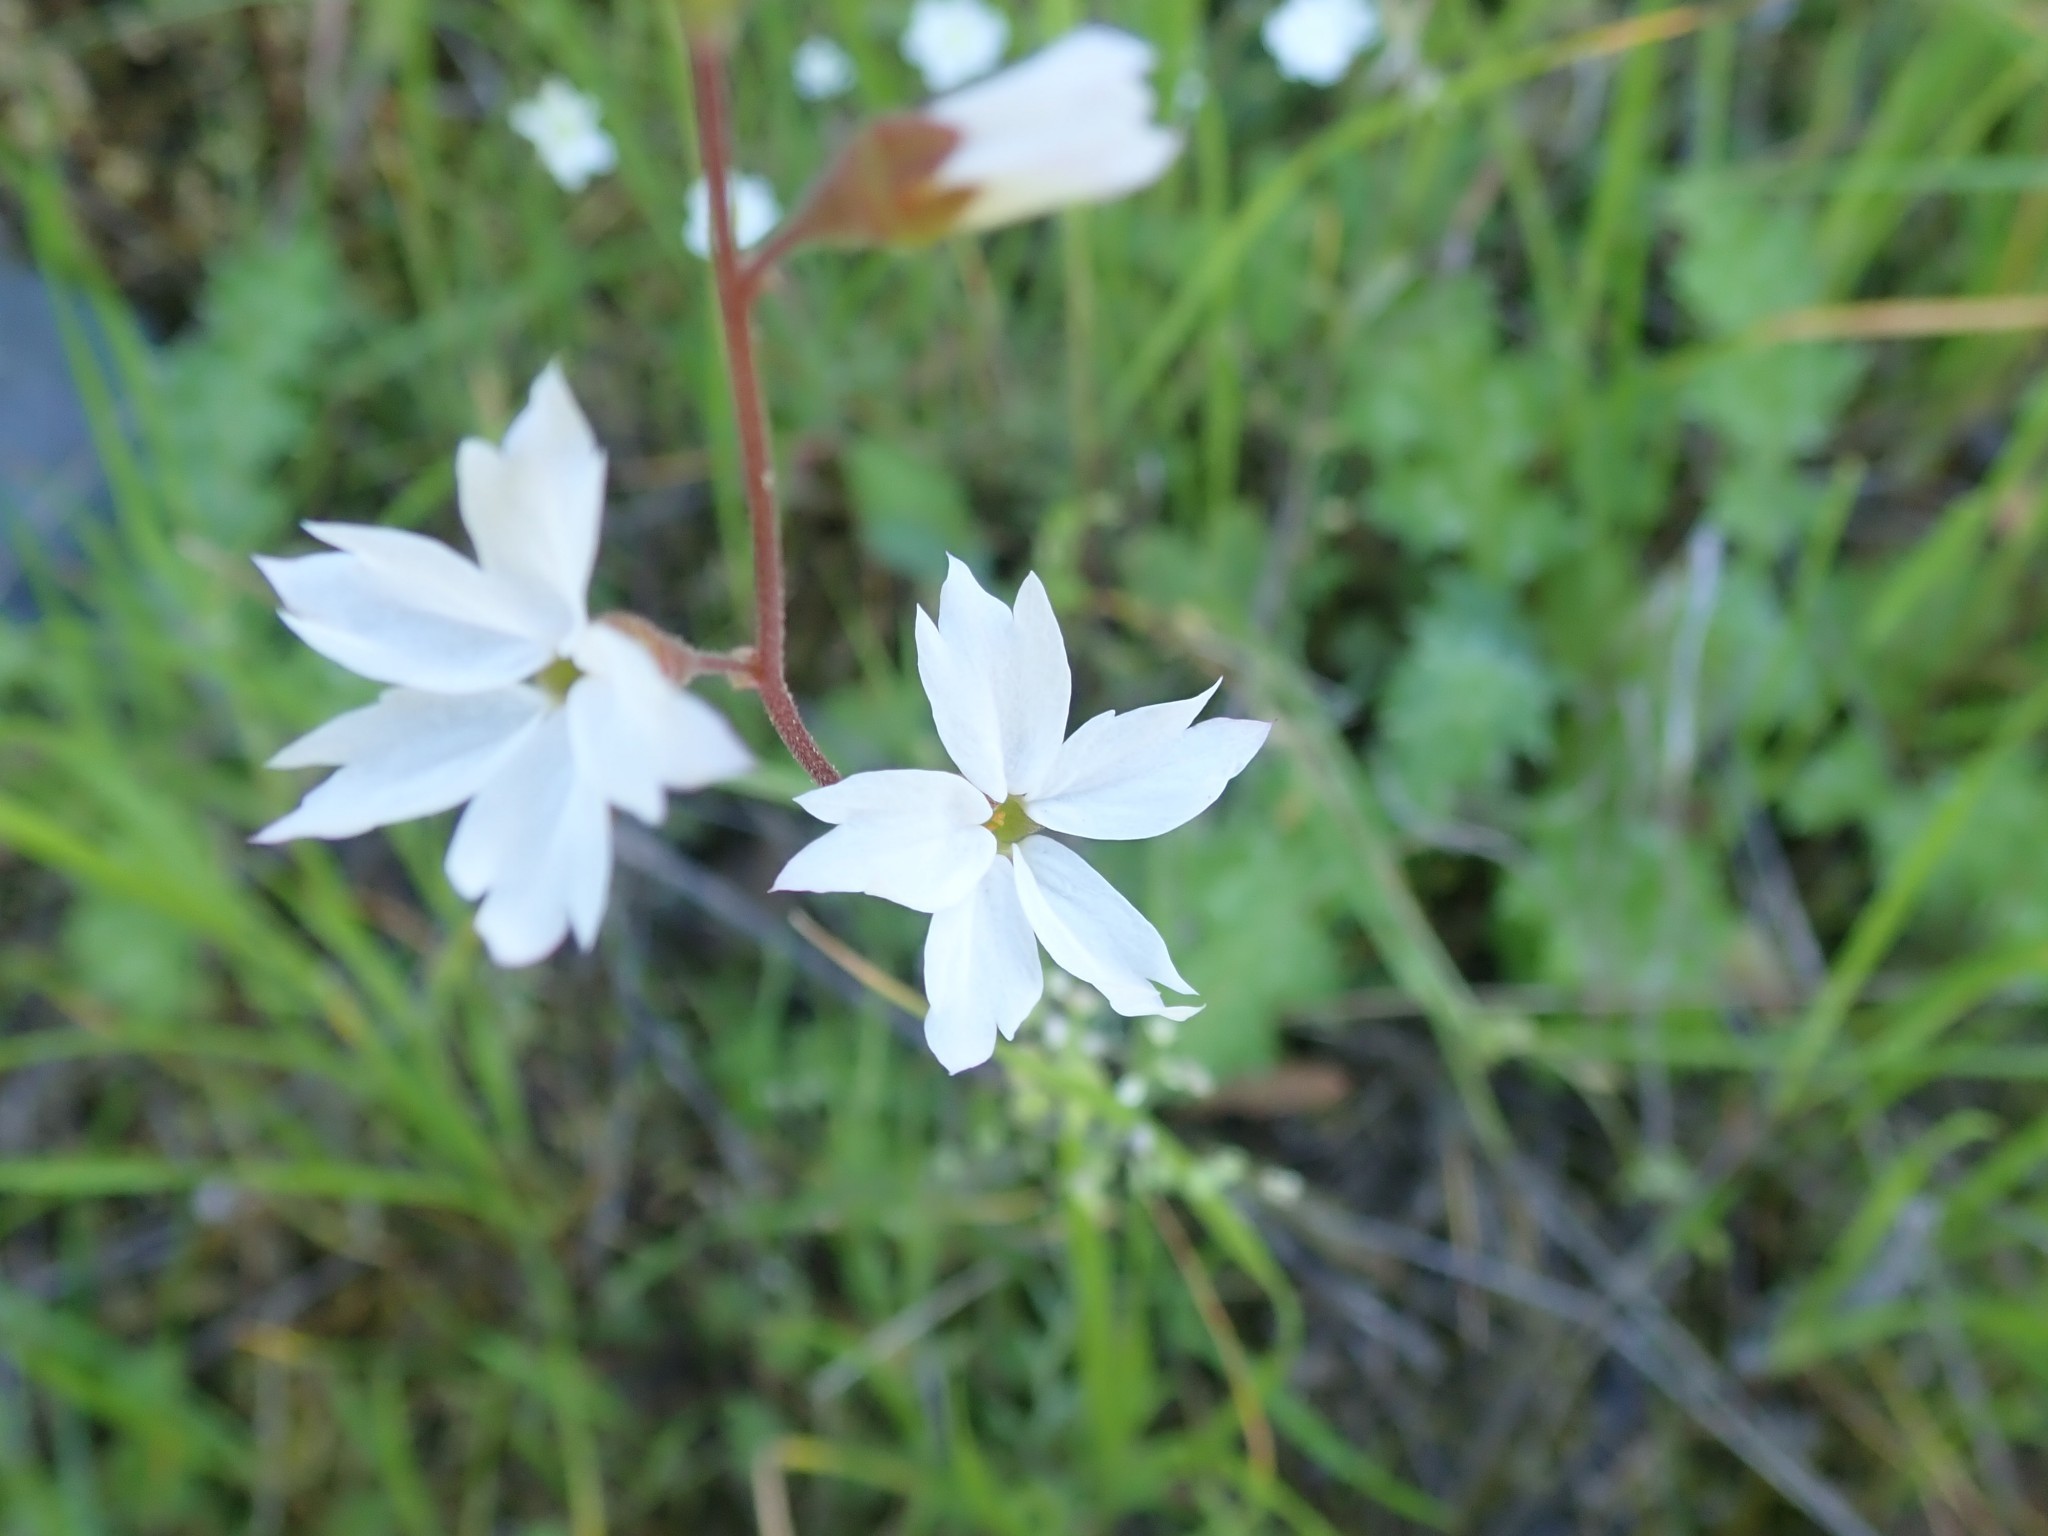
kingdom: Plantae
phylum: Tracheophyta
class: Magnoliopsida
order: Saxifragales
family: Saxifragaceae
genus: Lithophragma
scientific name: Lithophragma affine
